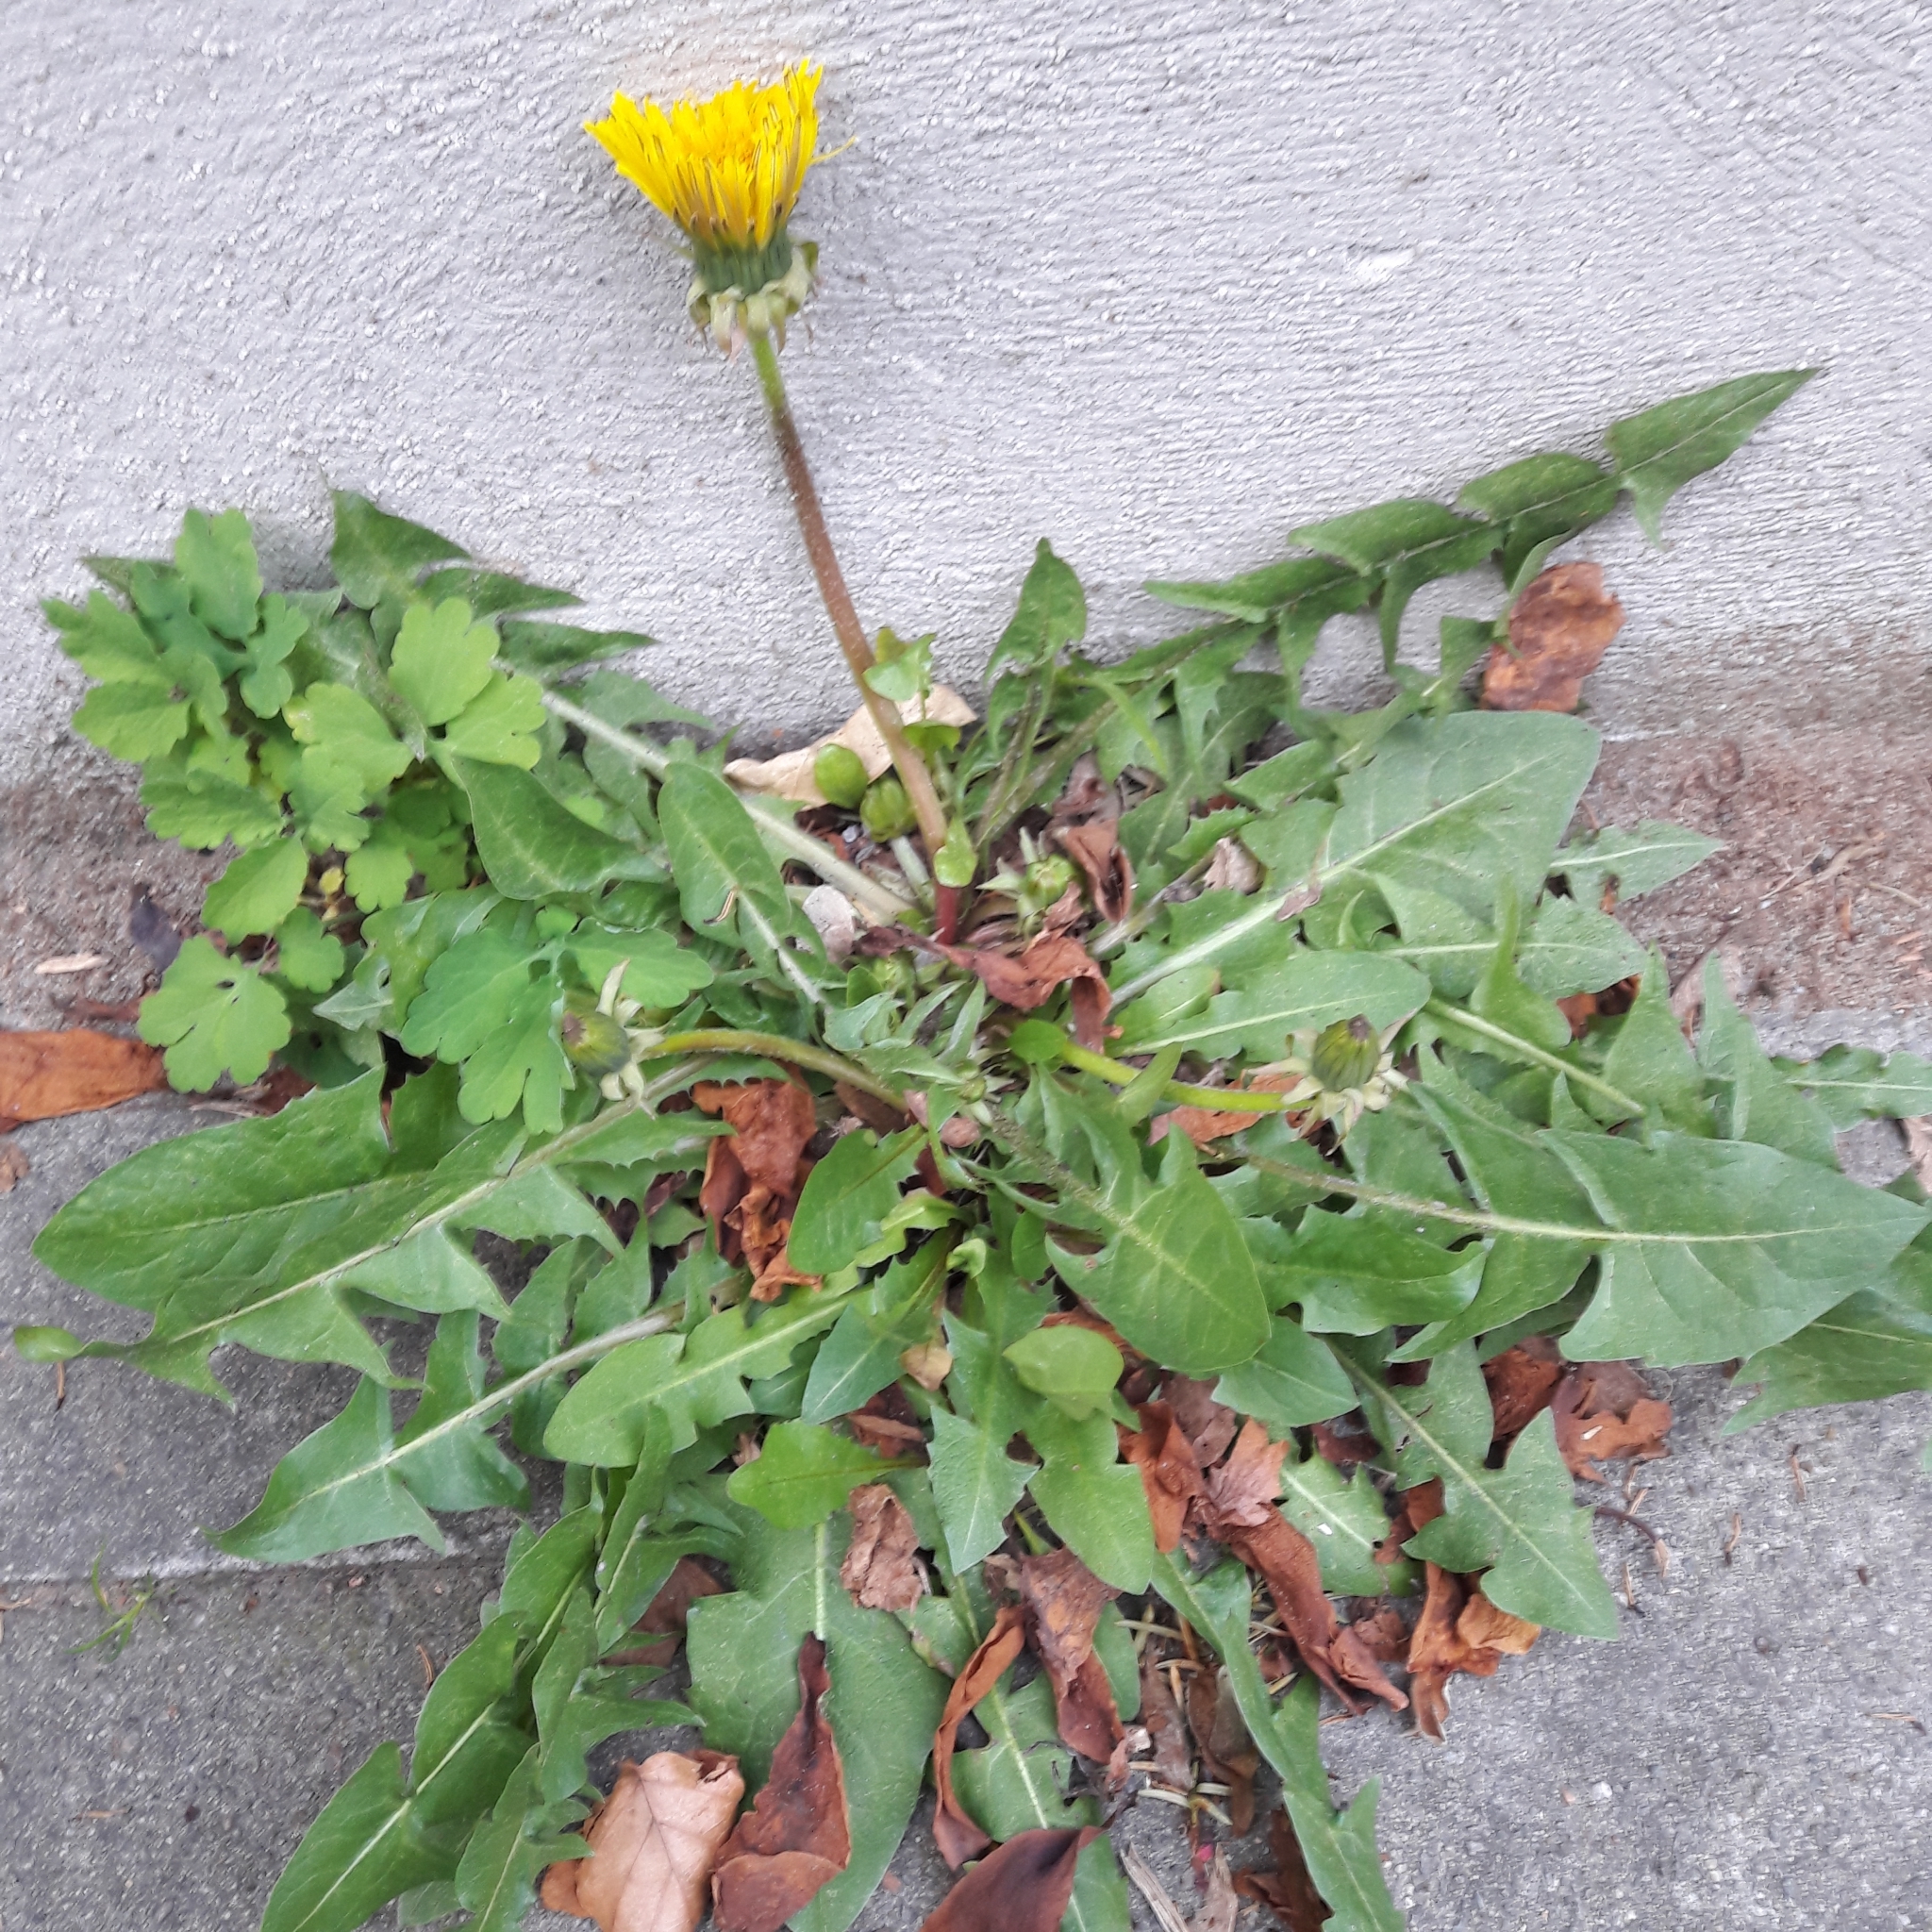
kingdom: Plantae
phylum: Tracheophyta
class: Magnoliopsida
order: Asterales
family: Asteraceae
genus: Taraxacum
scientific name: Taraxacum officinale
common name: Common dandelion
